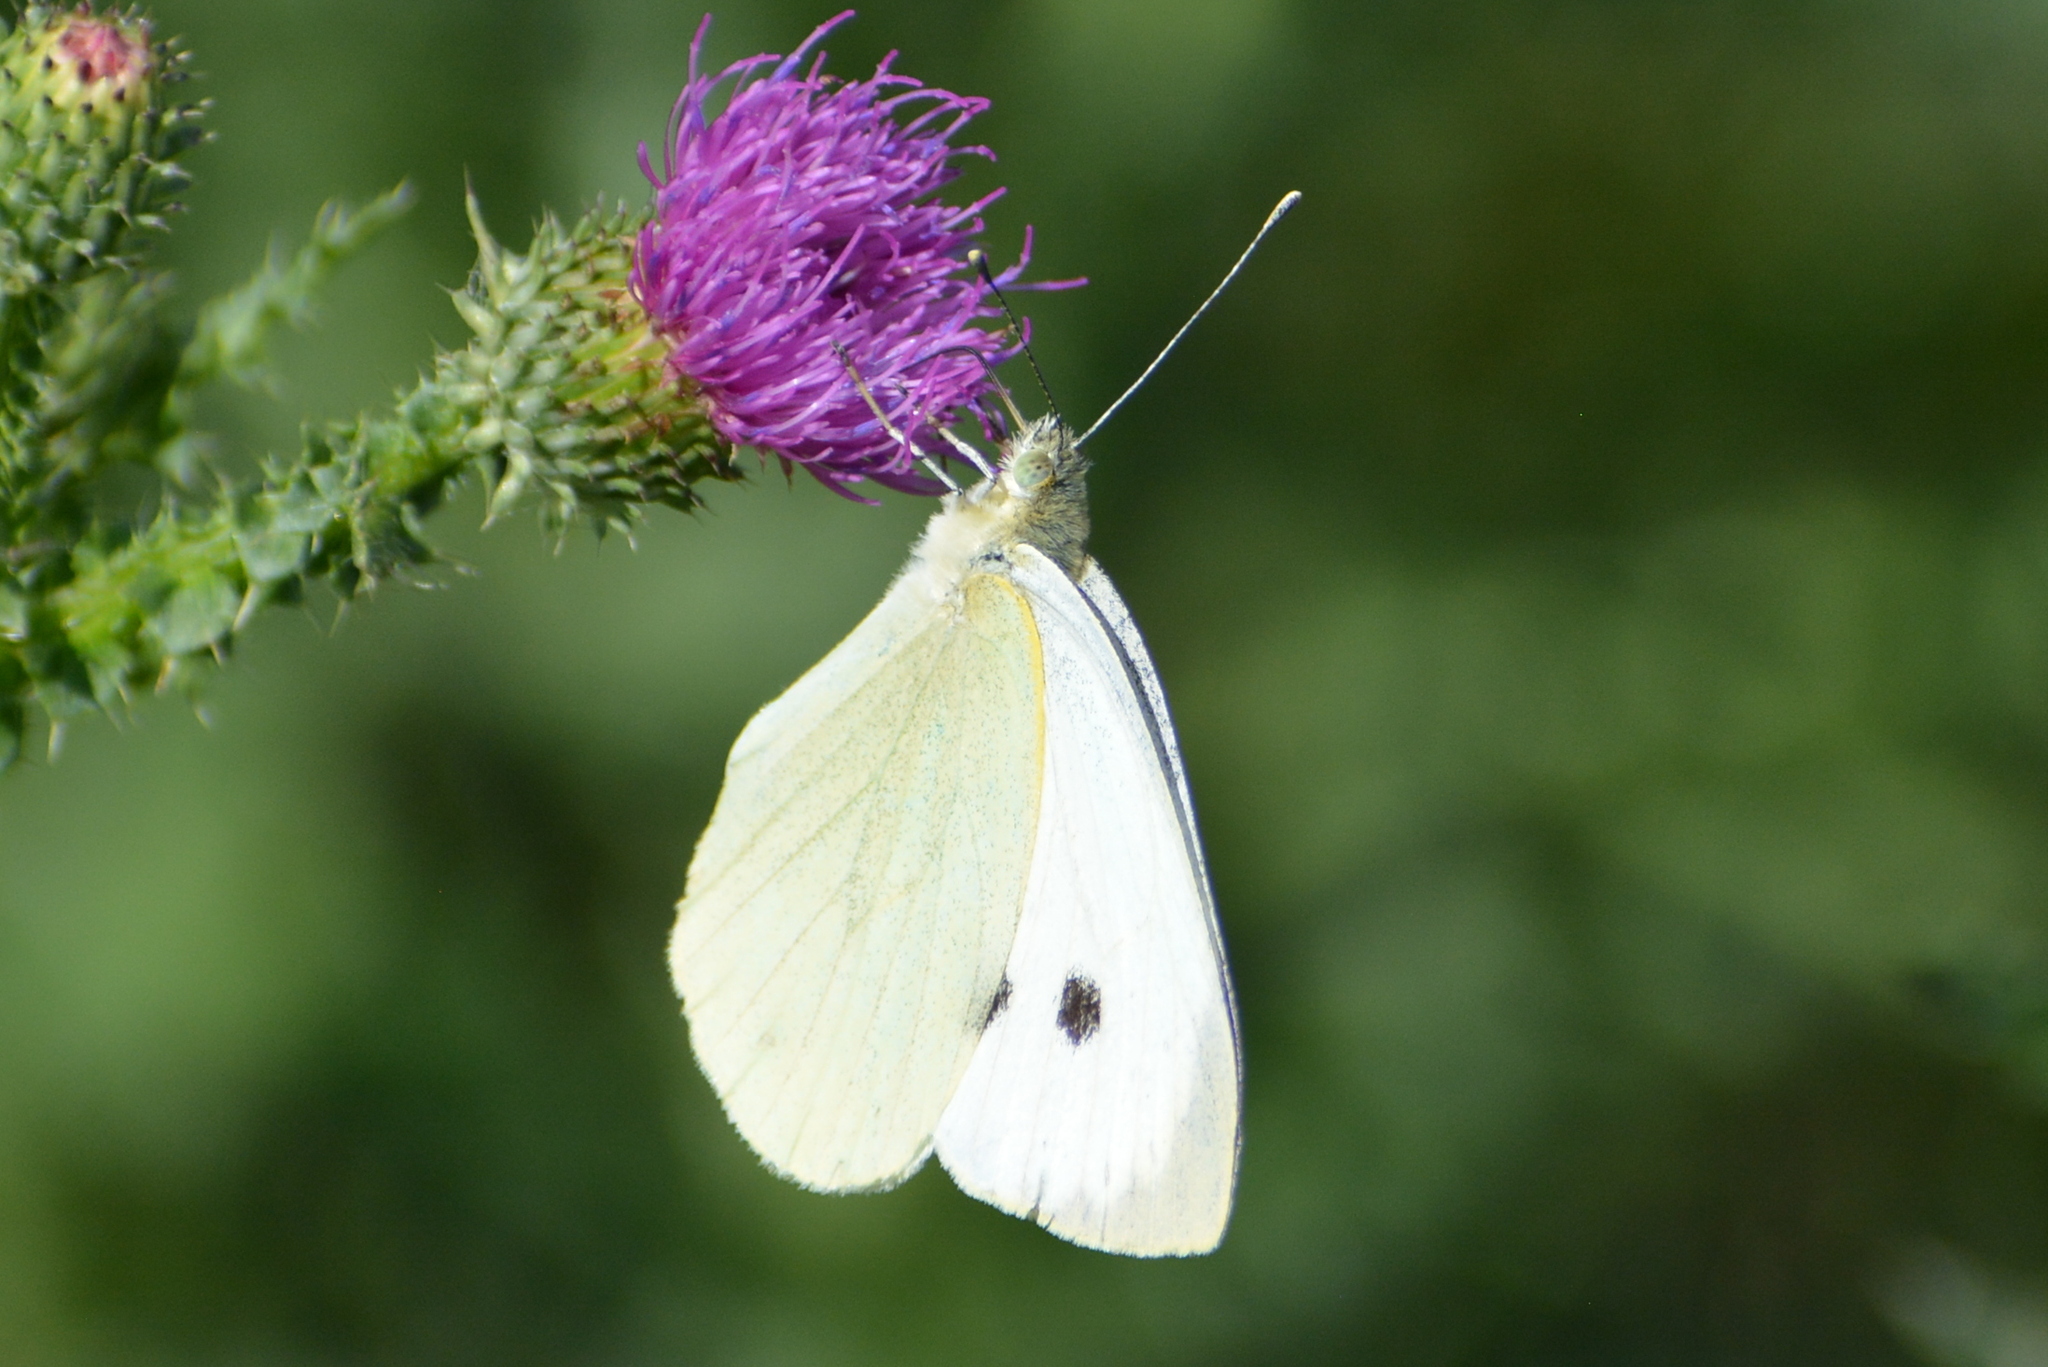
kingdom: Animalia
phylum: Arthropoda
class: Insecta
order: Lepidoptera
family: Pieridae
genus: Pieris
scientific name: Pieris brassicae
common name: Large white
